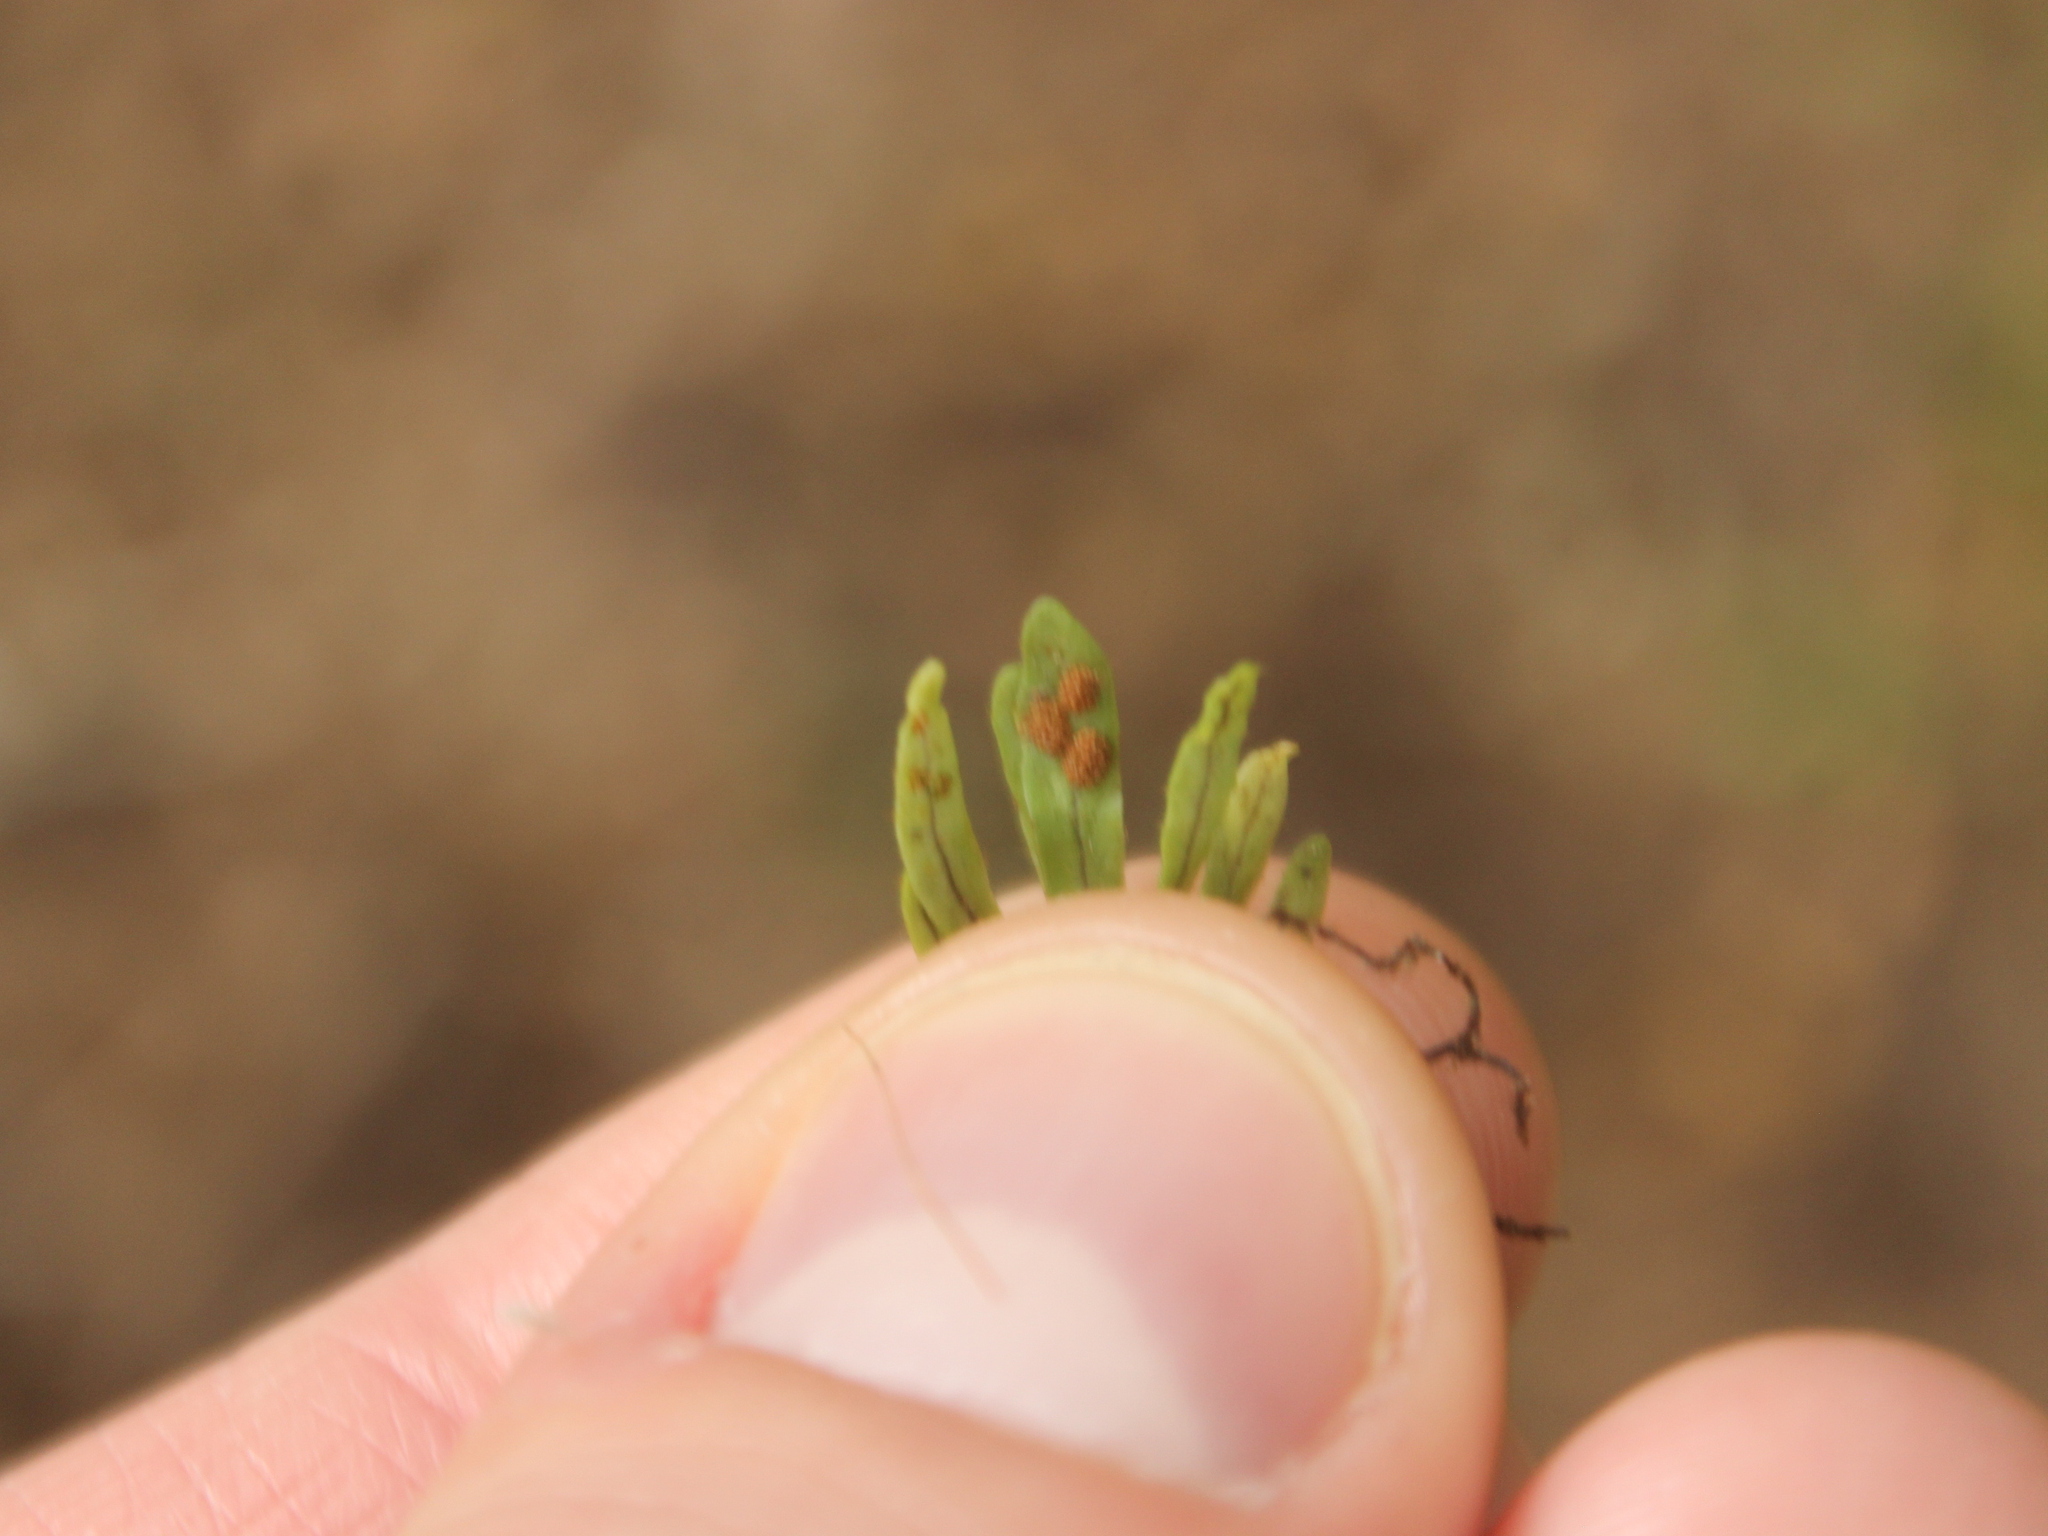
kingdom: Plantae
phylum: Tracheophyta
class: Polypodiopsida
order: Polypodiales
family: Polypodiaceae
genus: Notogrammitis
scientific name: Notogrammitis ciliata
